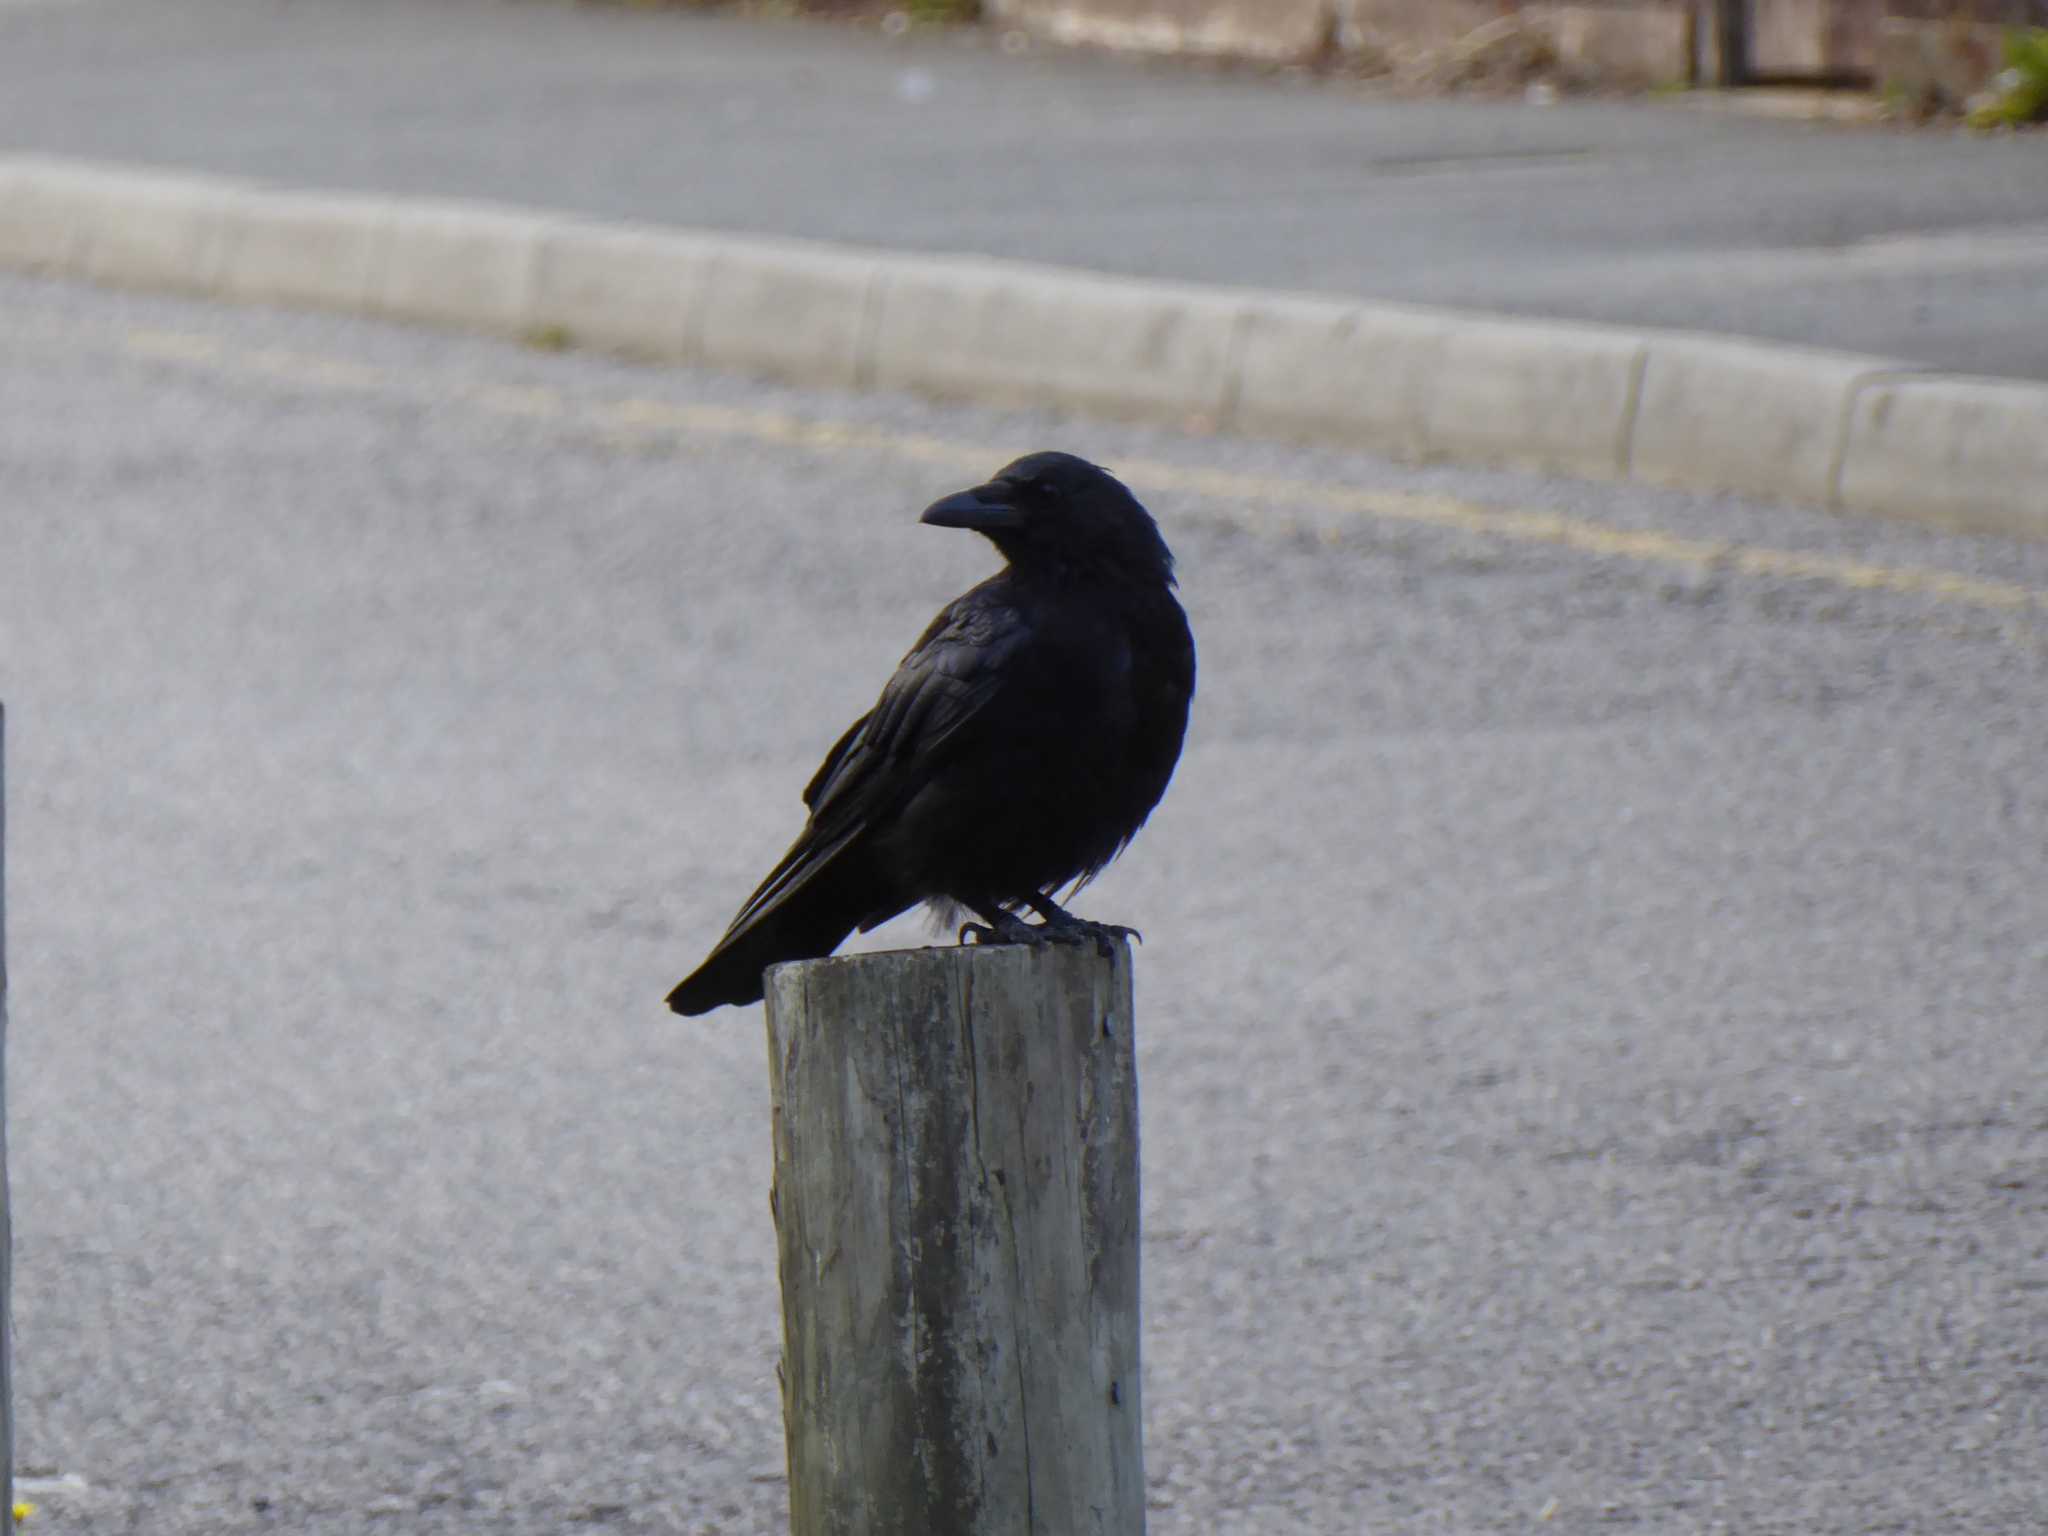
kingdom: Animalia
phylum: Chordata
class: Aves
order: Passeriformes
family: Corvidae
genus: Corvus
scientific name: Corvus corone
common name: Carrion crow
